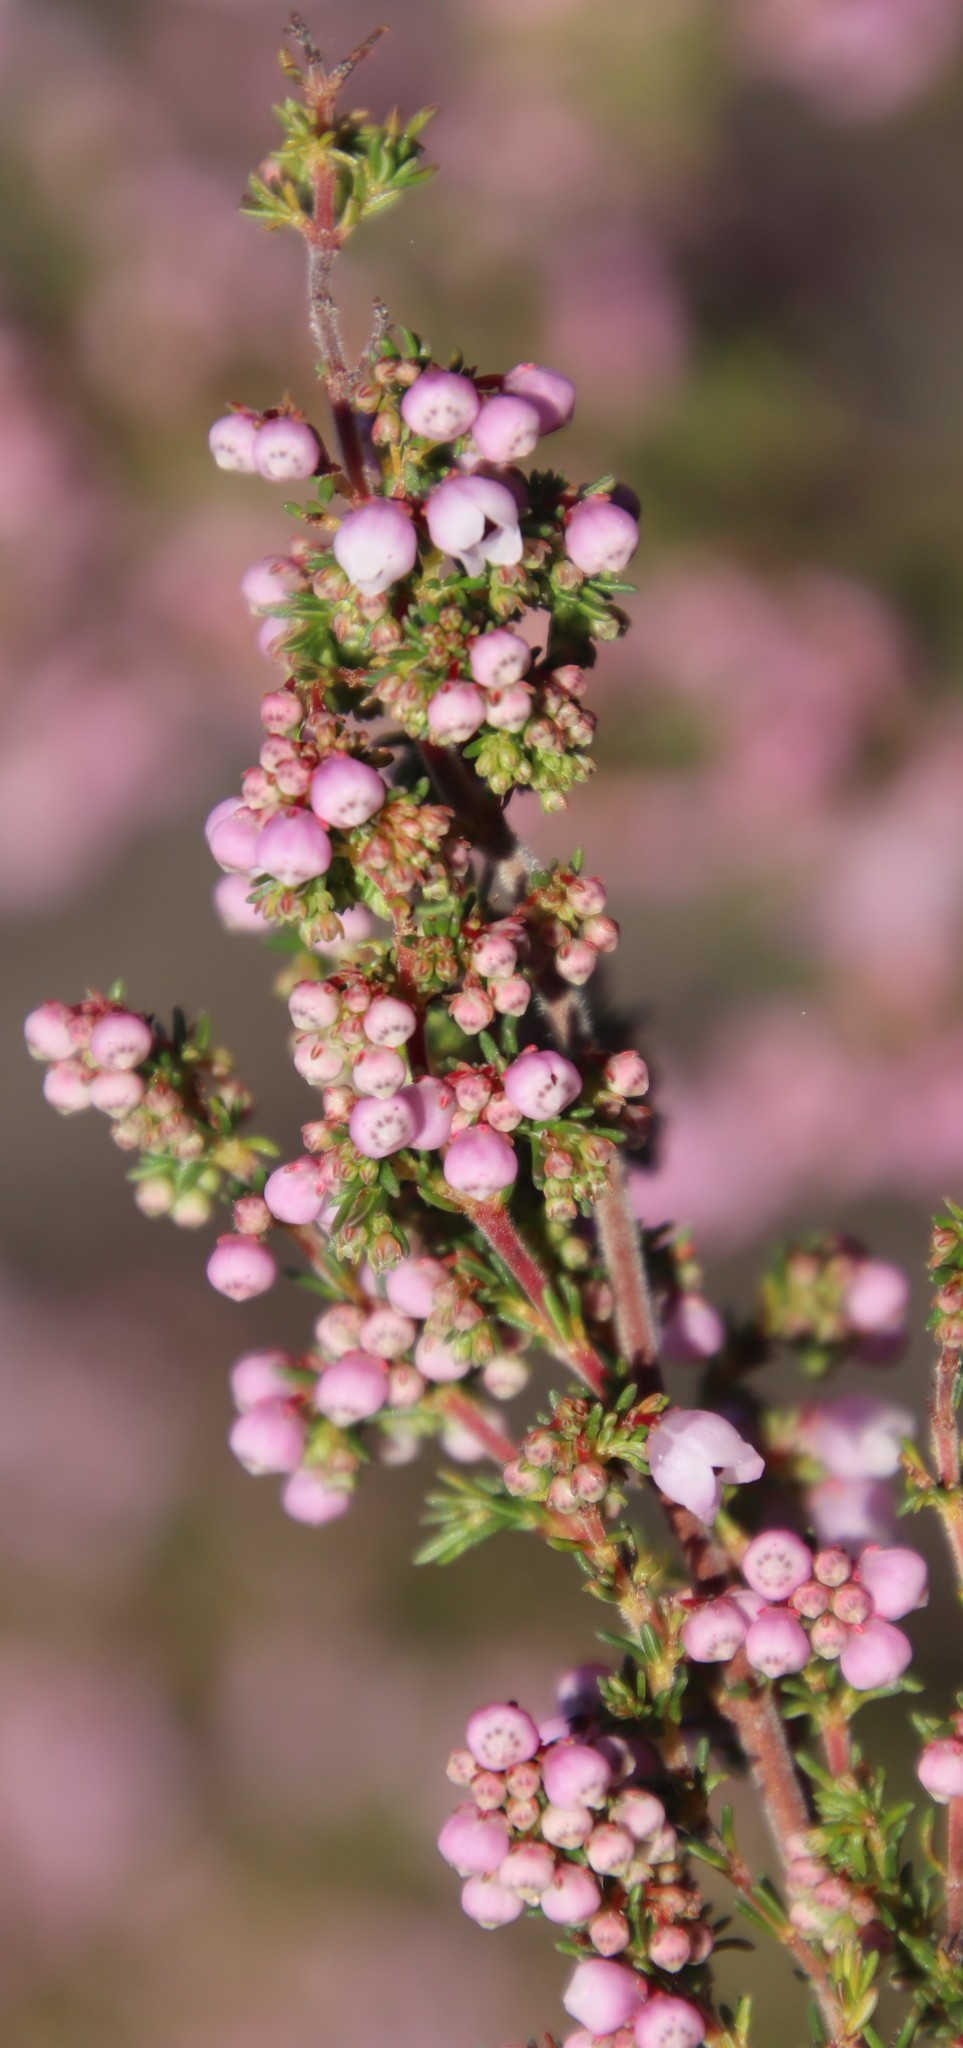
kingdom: Plantae
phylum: Tracheophyta
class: Magnoliopsida
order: Ericales
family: Ericaceae
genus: Erica
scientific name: Erica mauritanica
